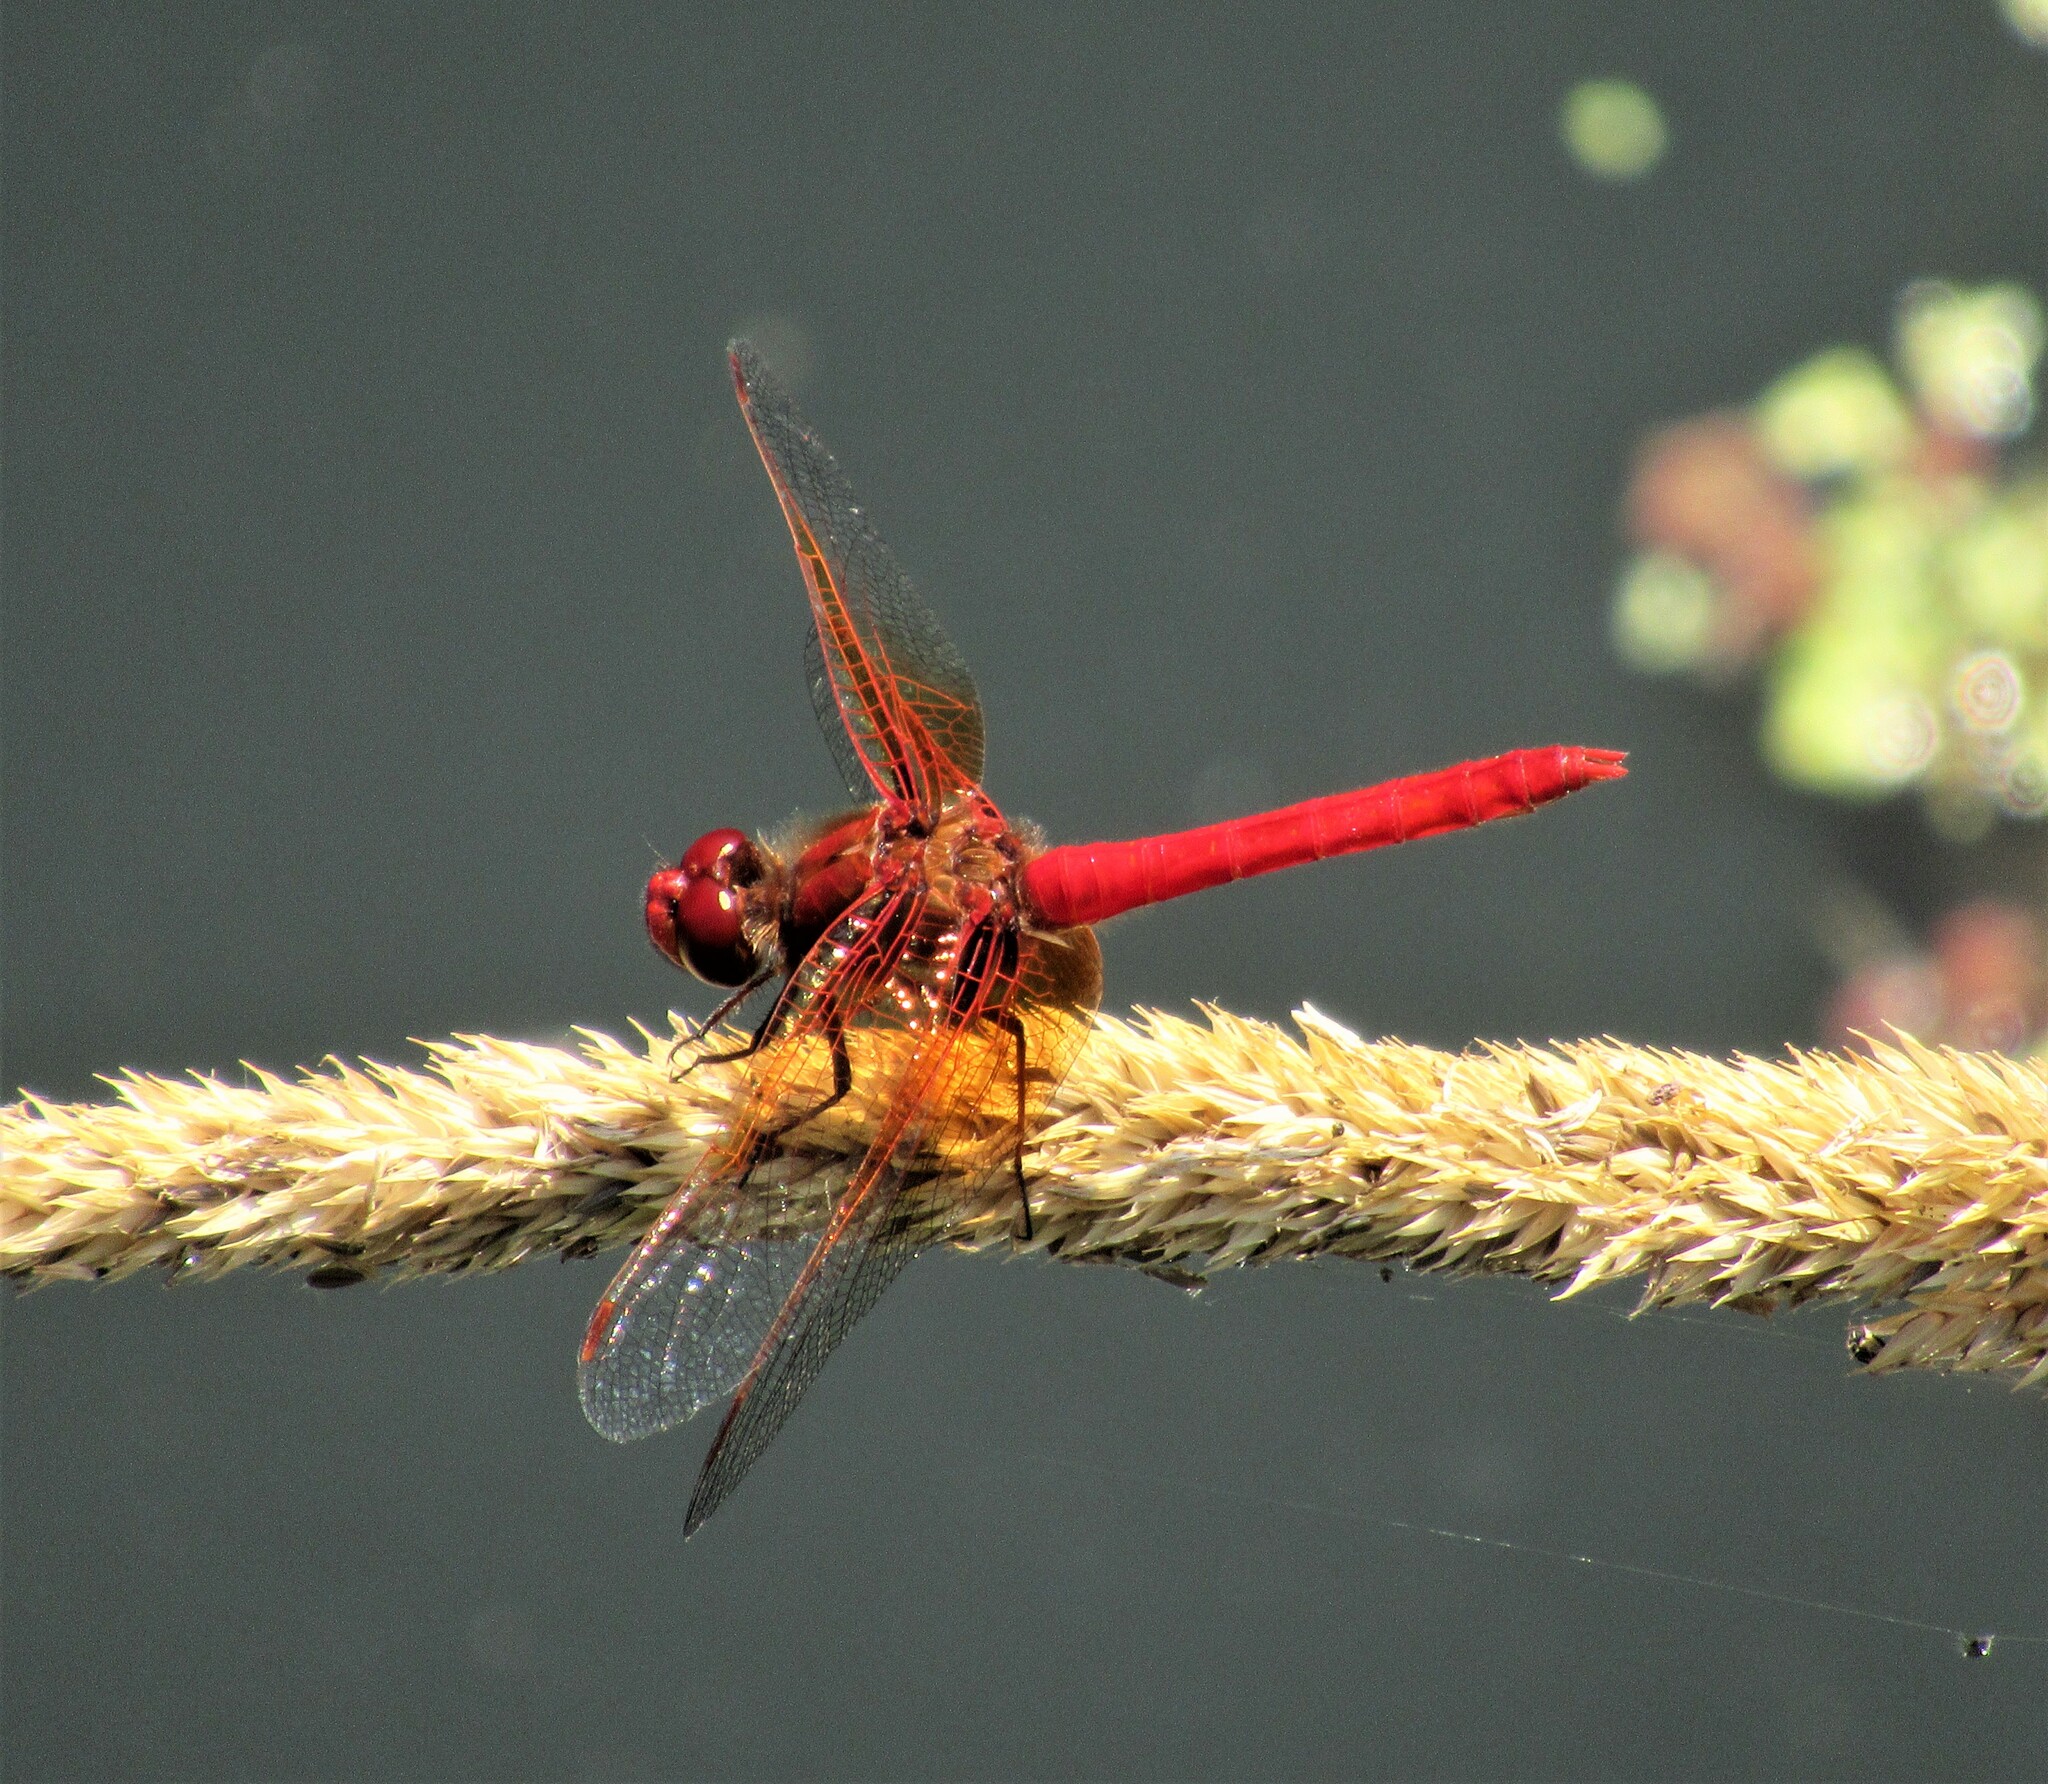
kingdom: Animalia
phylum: Arthropoda
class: Insecta
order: Odonata
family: Libellulidae
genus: Sympetrum
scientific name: Sympetrum illotum
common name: Cardinal meadowhawk
